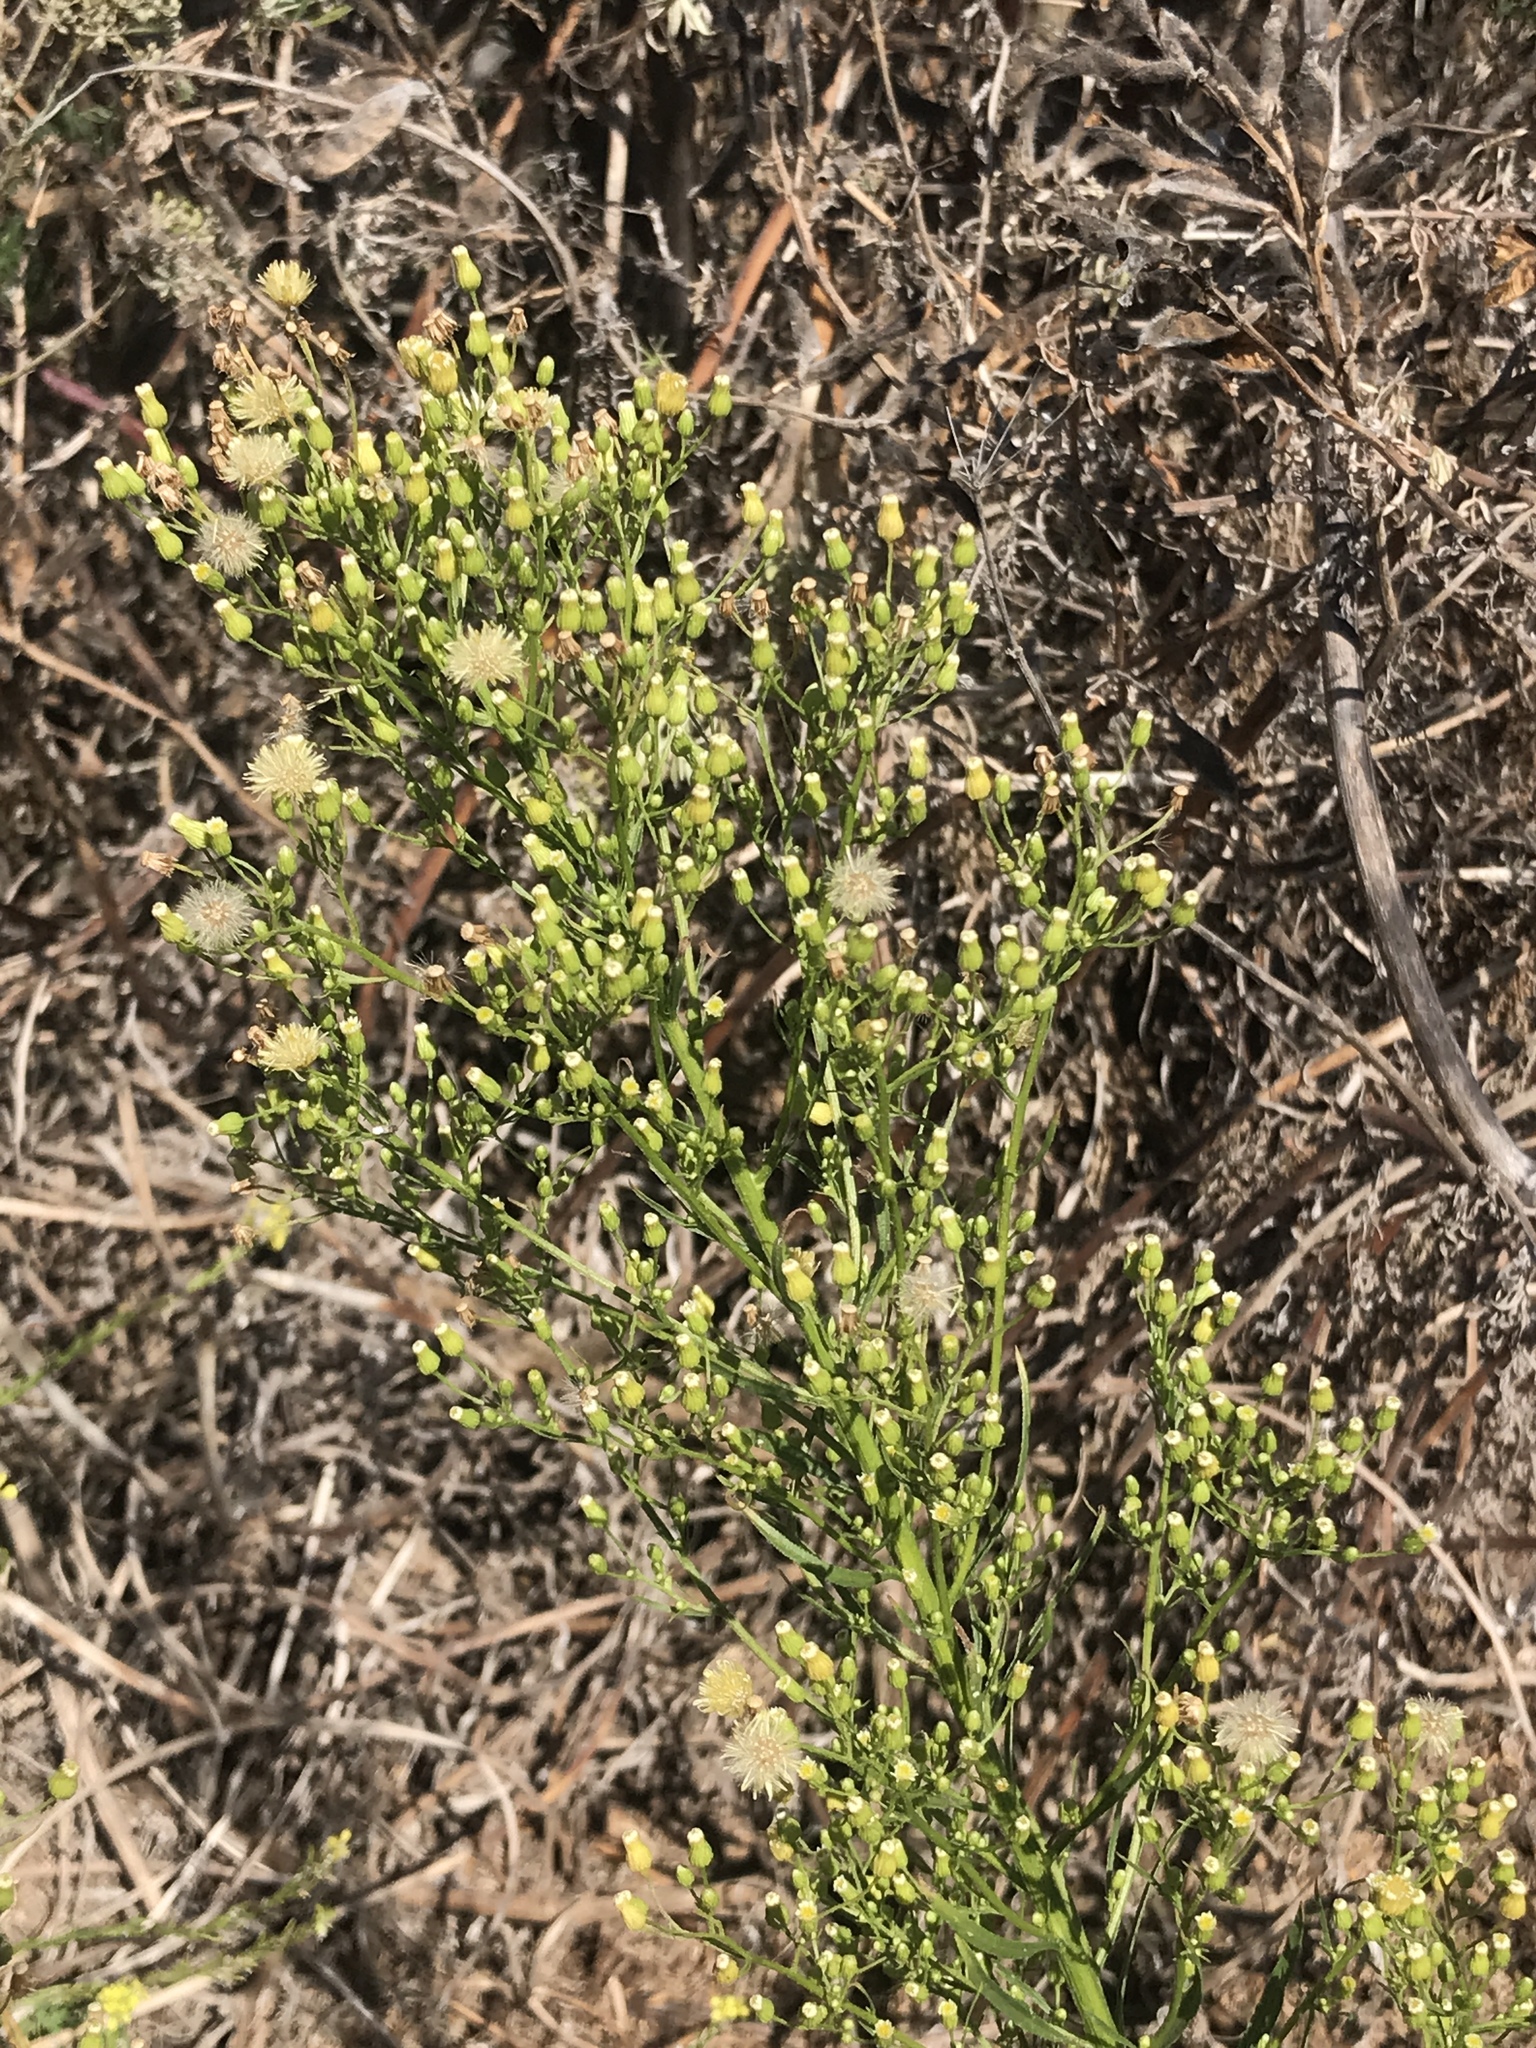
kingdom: Plantae
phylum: Tracheophyta
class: Magnoliopsida
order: Asterales
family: Asteraceae
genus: Erigeron
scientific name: Erigeron canadensis
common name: Canadian fleabane
